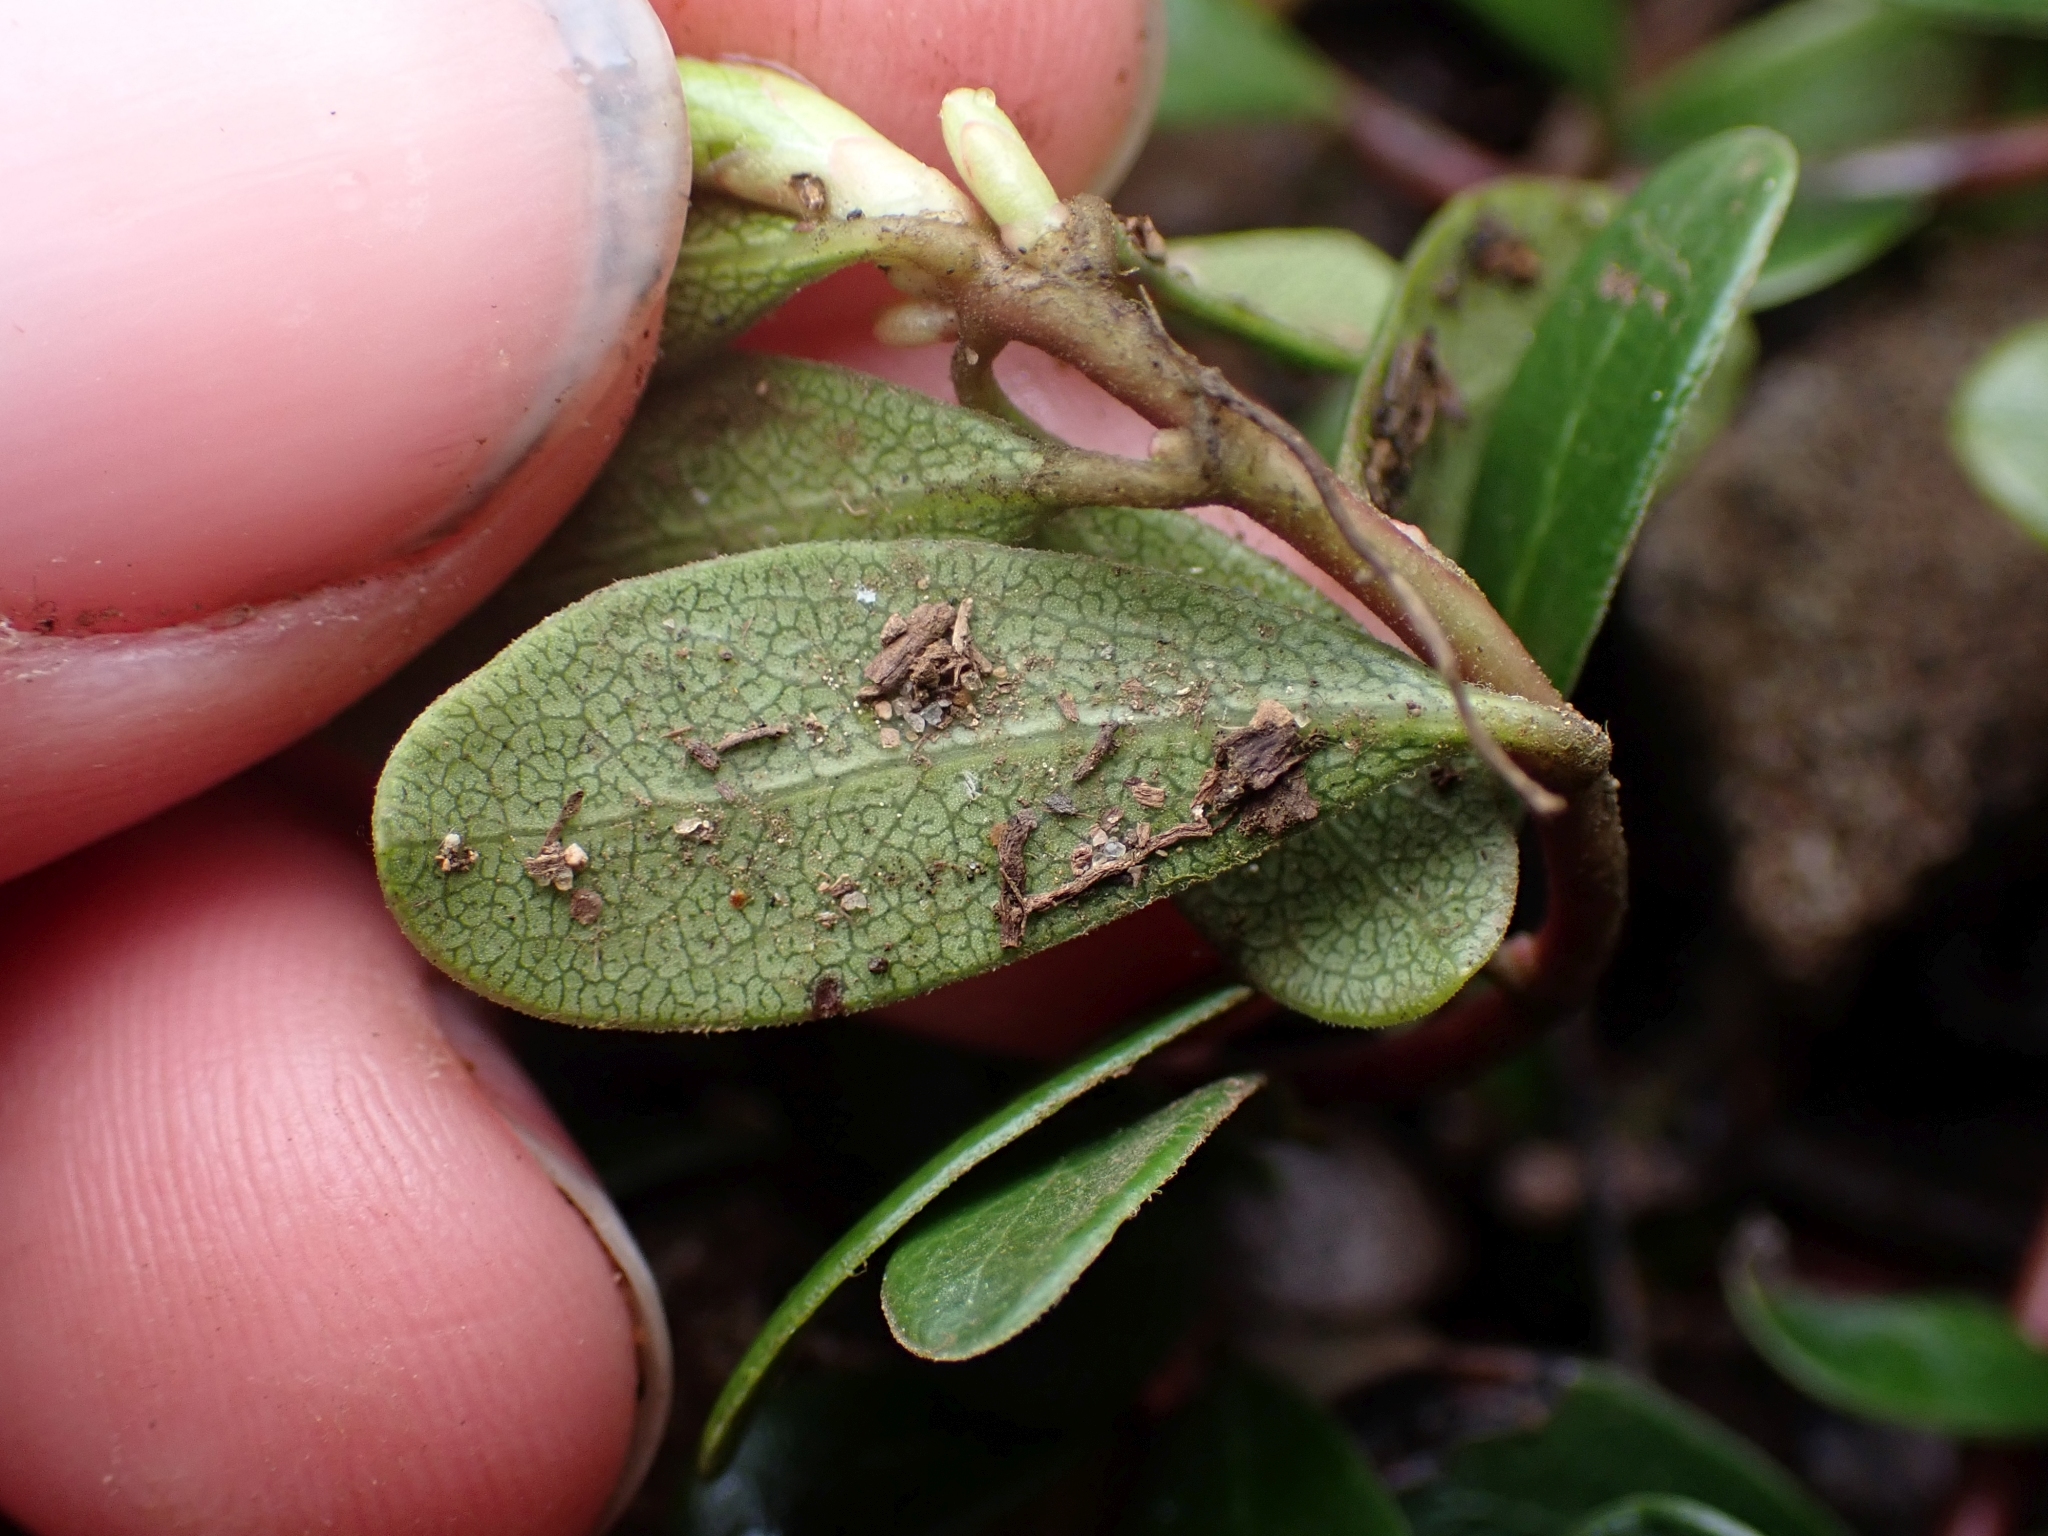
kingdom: Plantae
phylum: Tracheophyta
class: Magnoliopsida
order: Ericales
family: Ericaceae
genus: Arctostaphylos
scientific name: Arctostaphylos uva-ursi
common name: Bearberry
